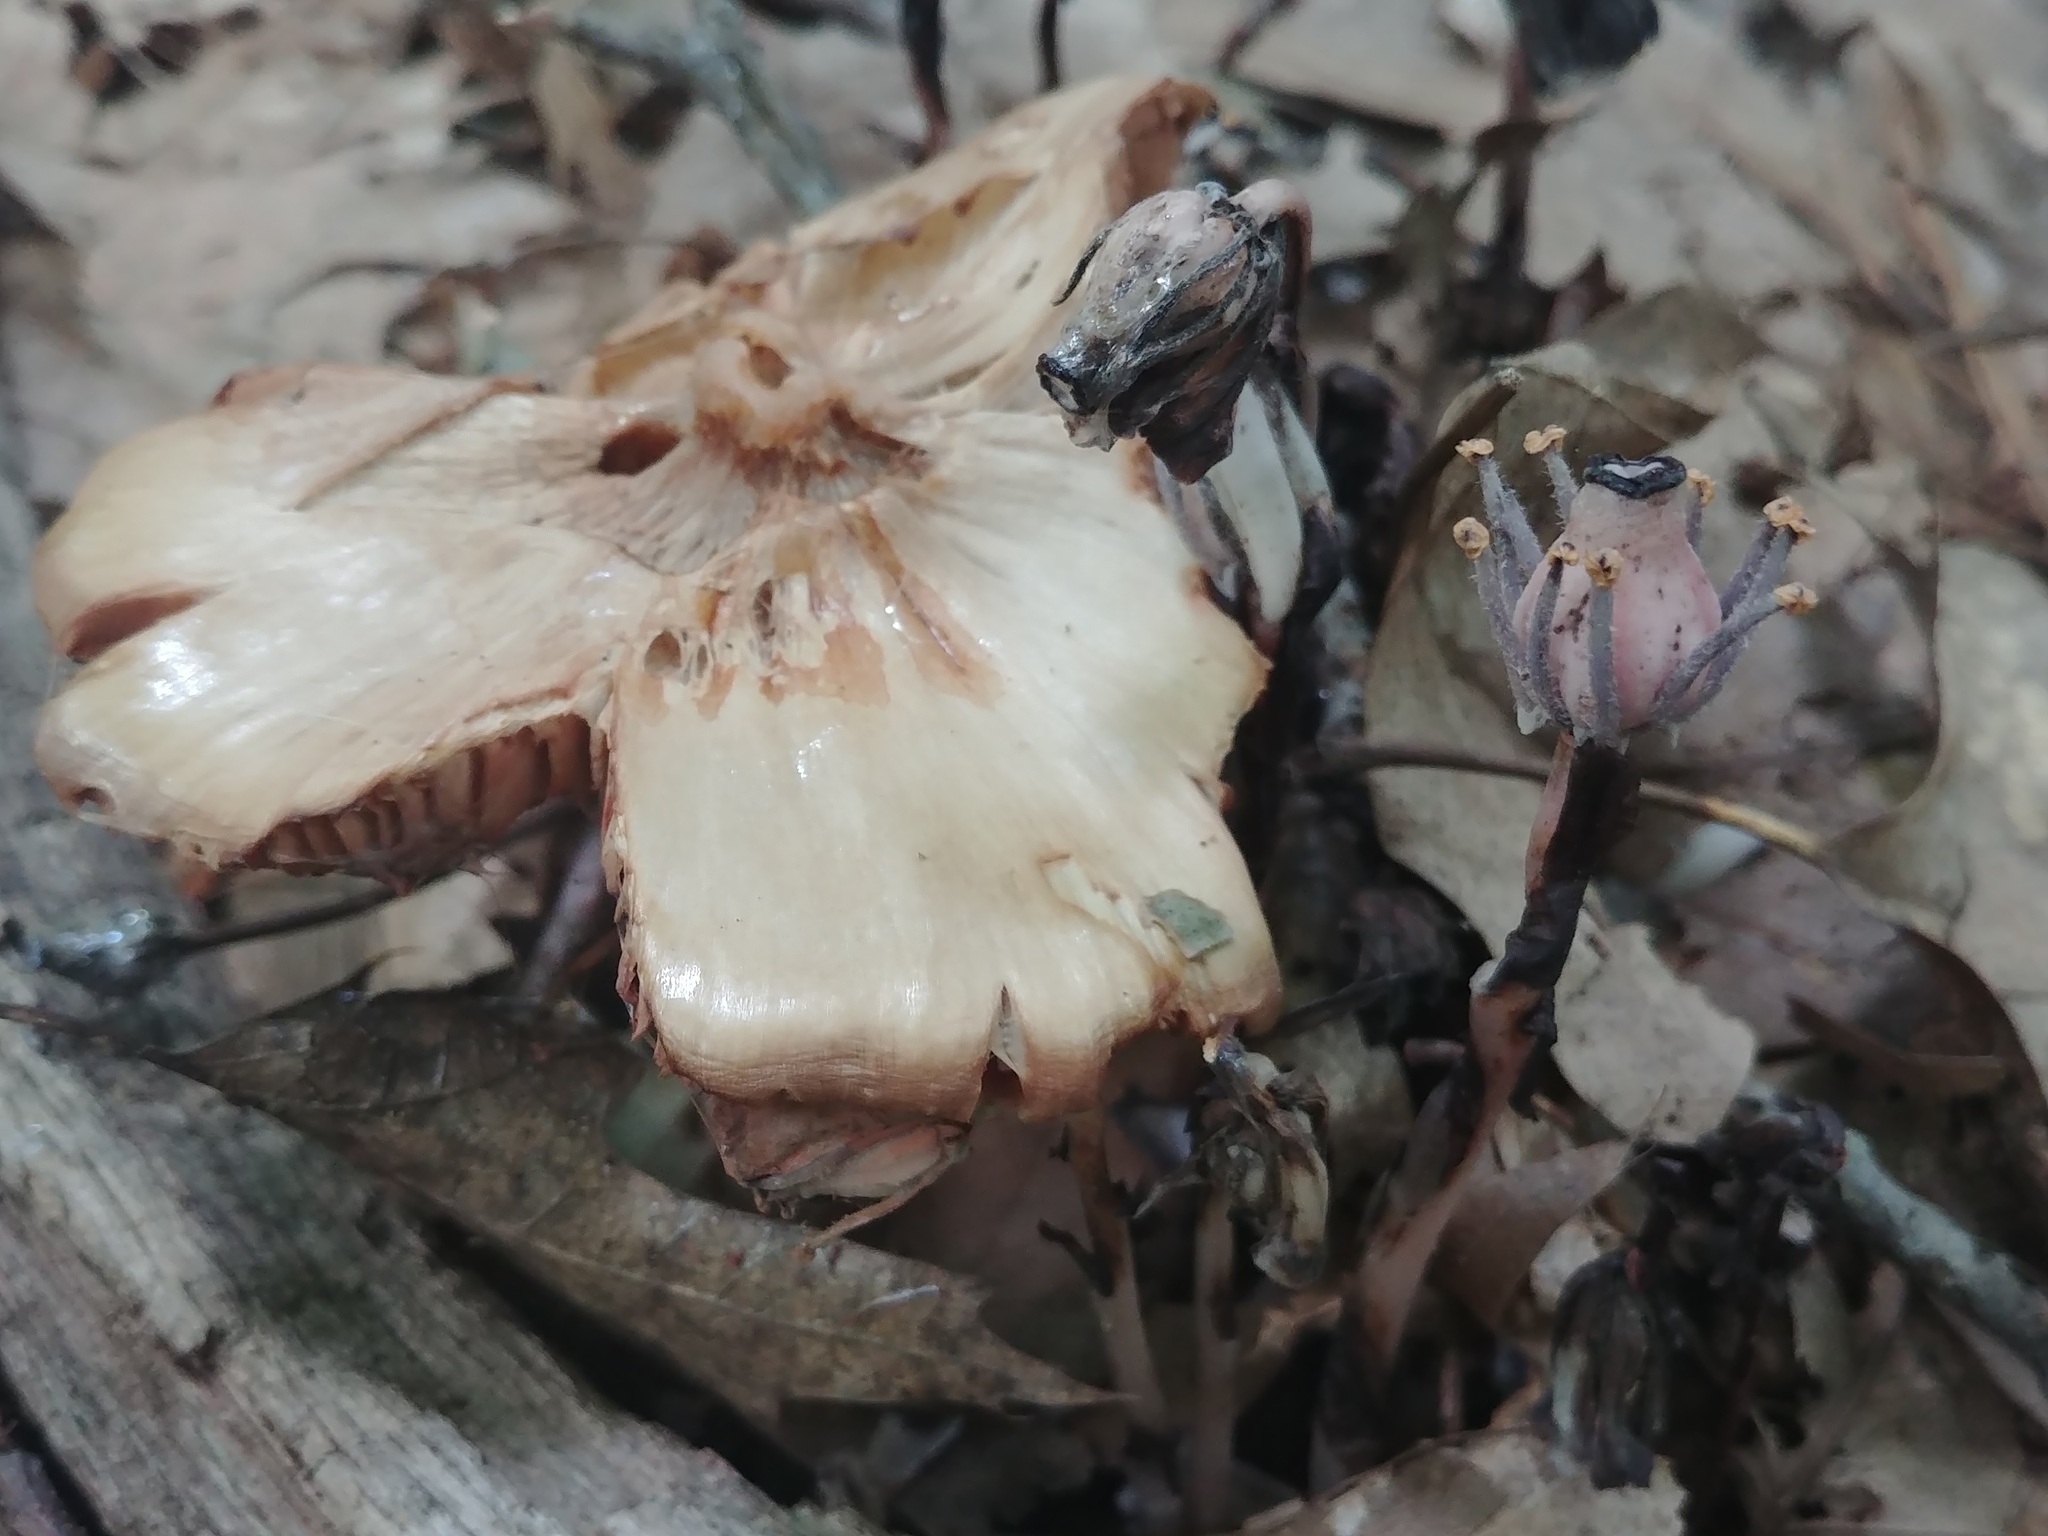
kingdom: Plantae
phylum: Tracheophyta
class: Magnoliopsida
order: Ericales
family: Ericaceae
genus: Monotropa
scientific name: Monotropa uniflora
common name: Convulsion root
